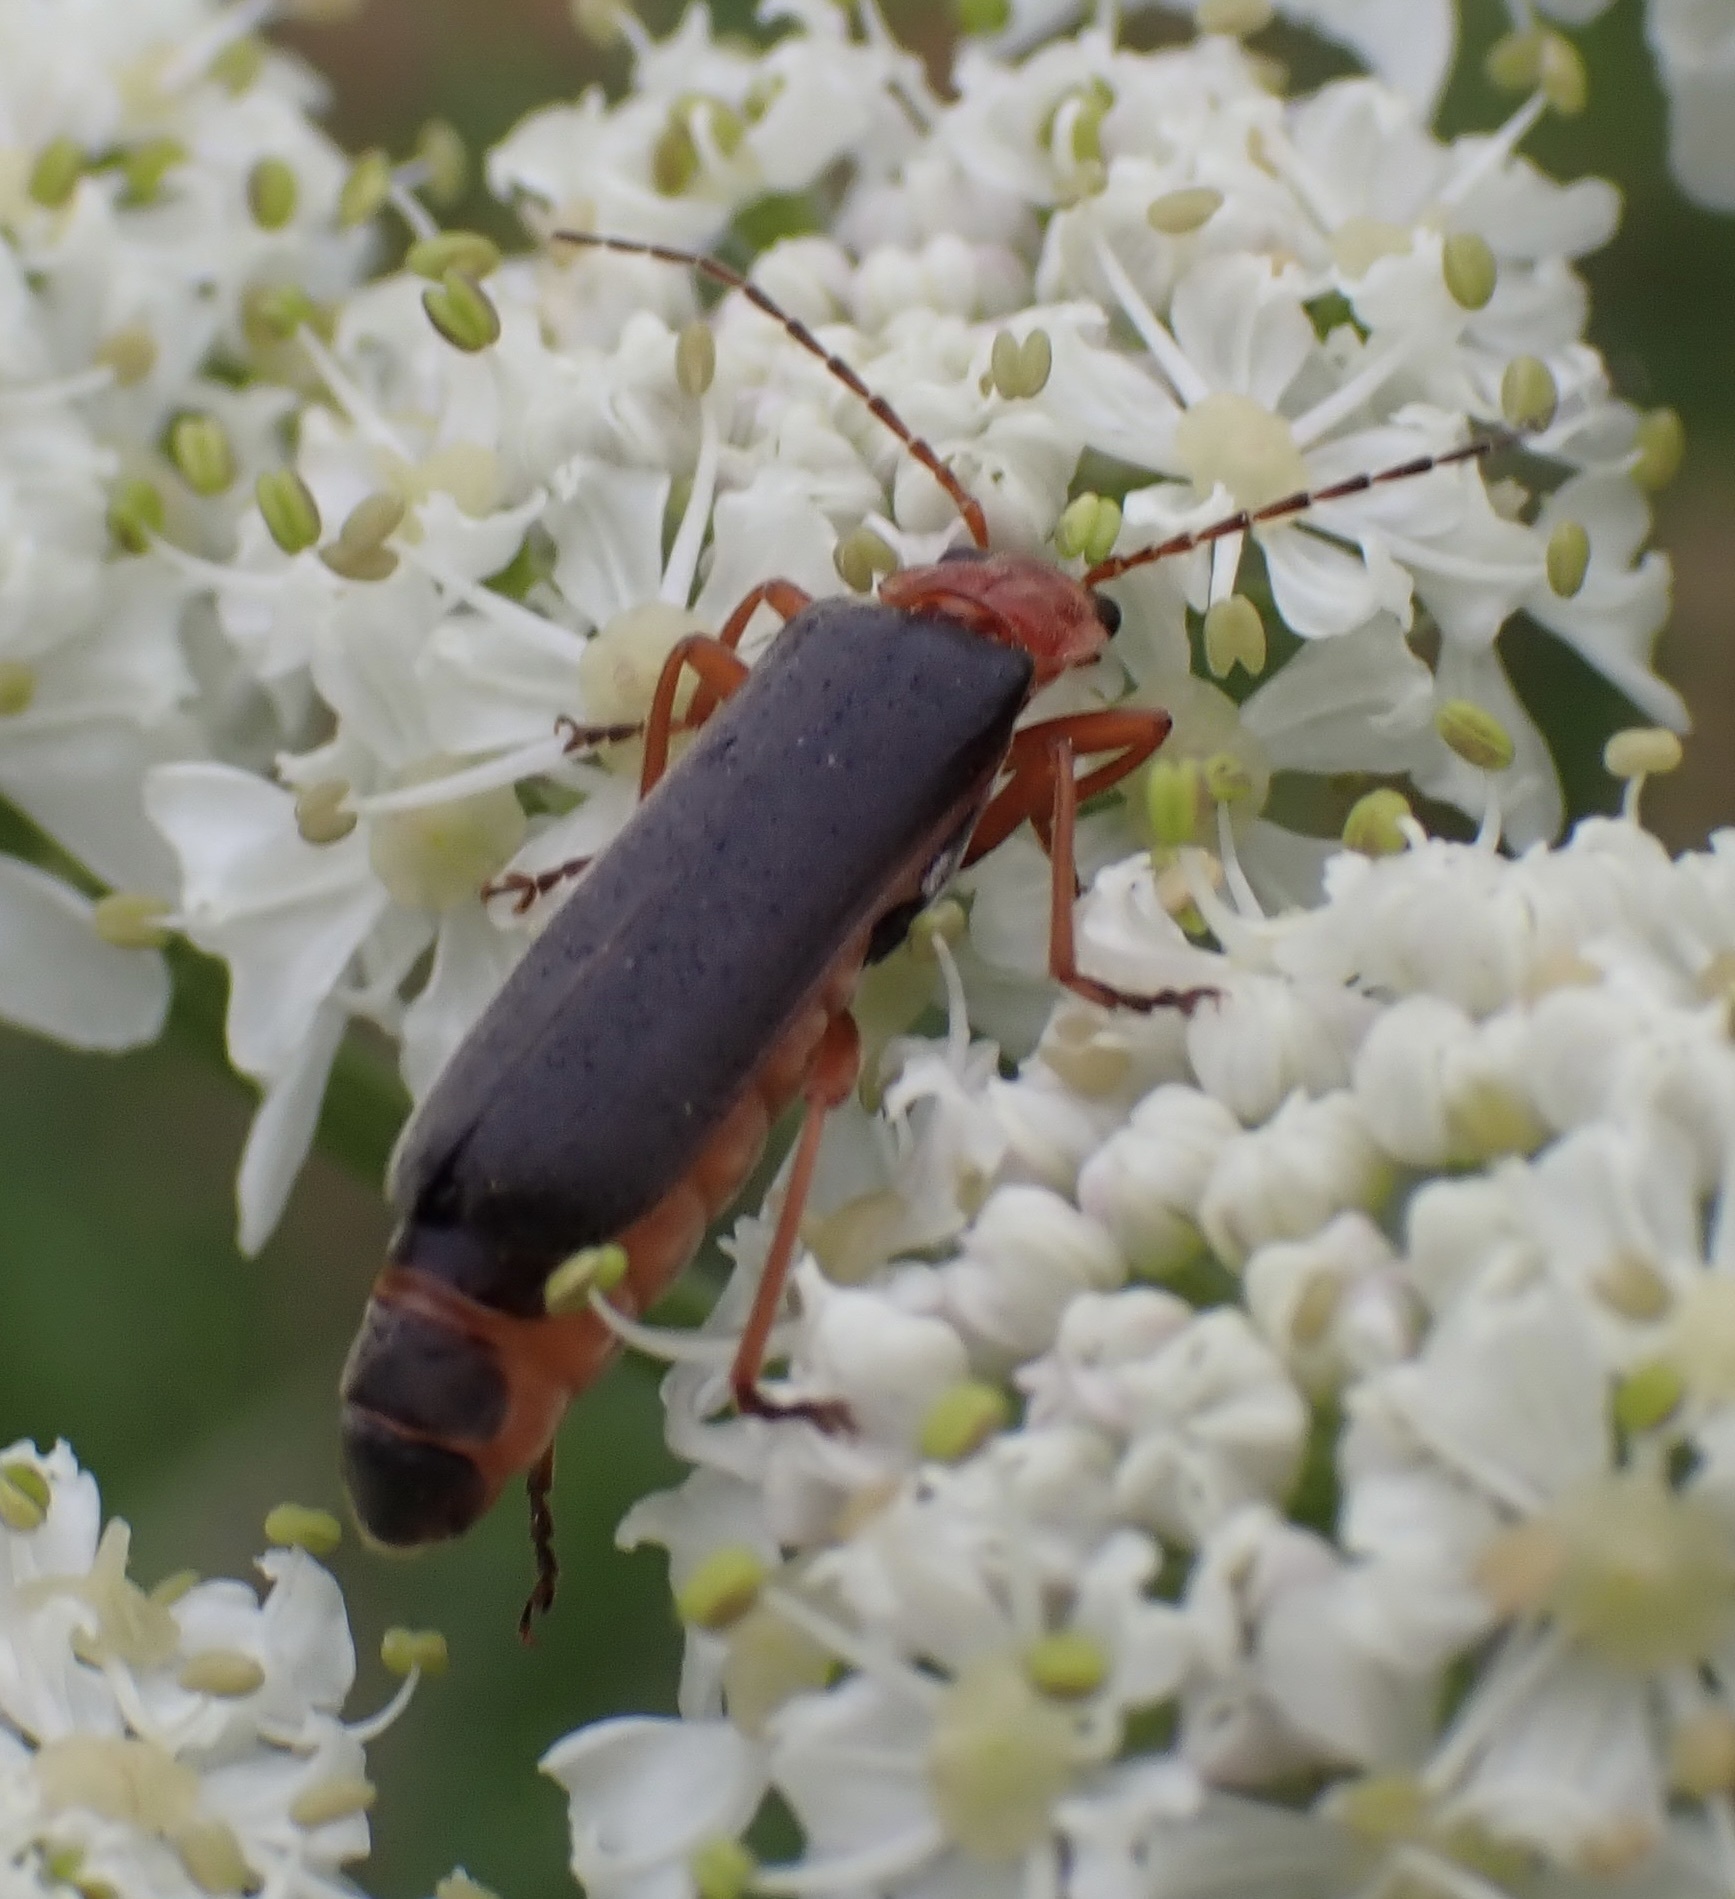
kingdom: Animalia
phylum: Arthropoda
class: Insecta
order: Coleoptera
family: Cantharidae
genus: Podabrus
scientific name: Podabrus alpinus
